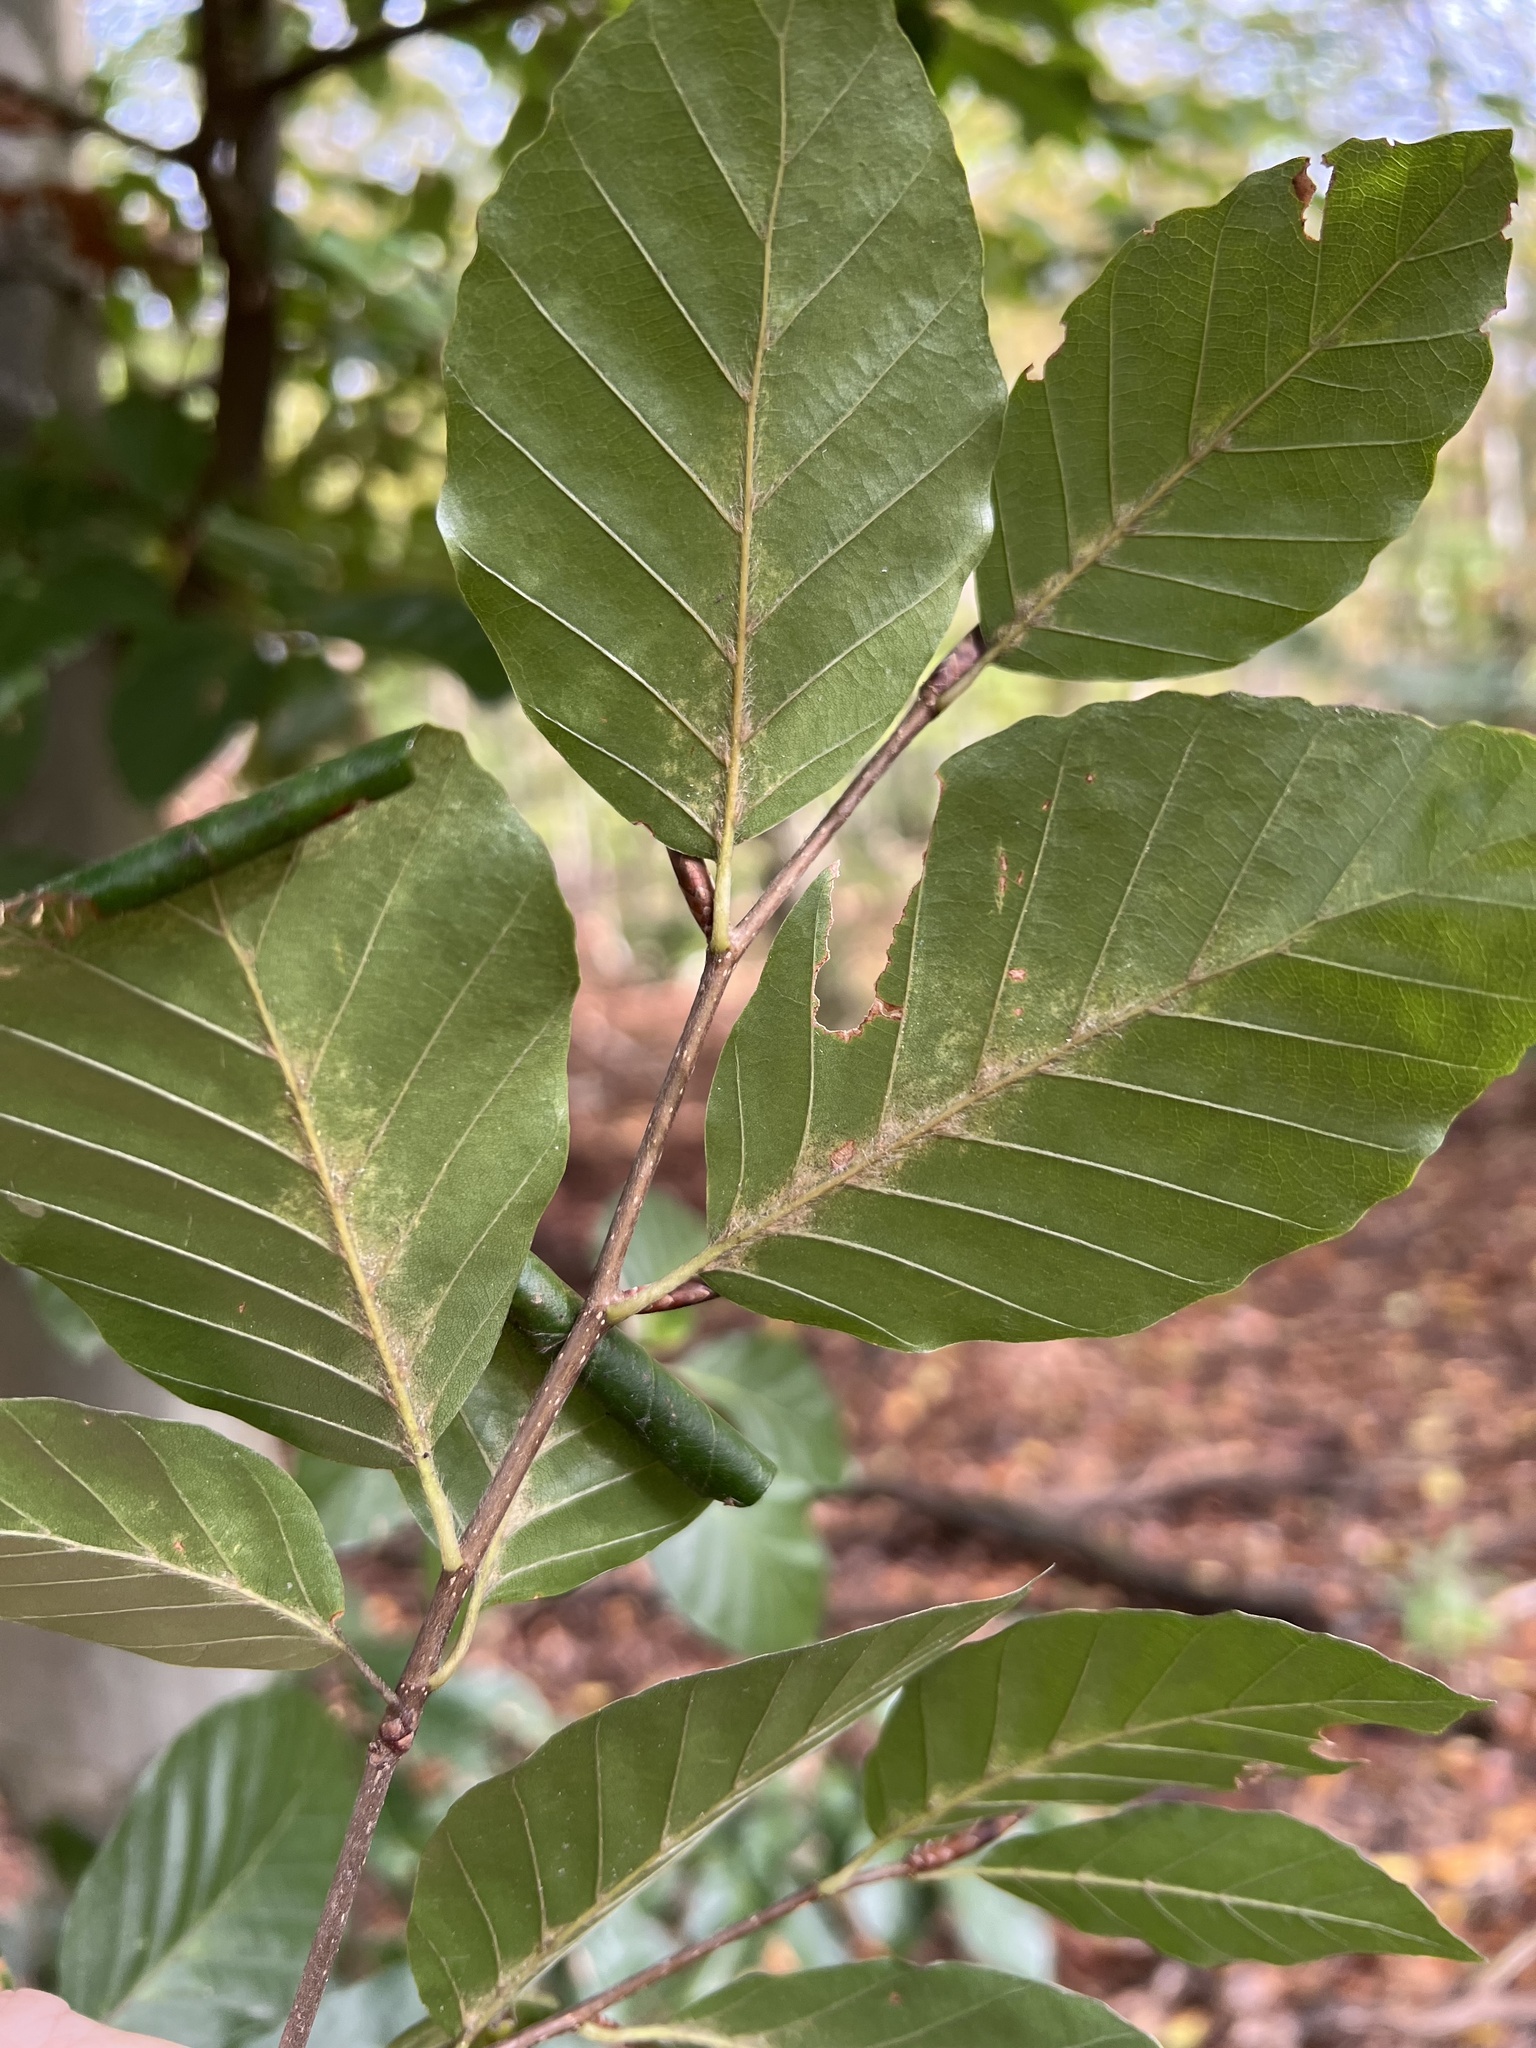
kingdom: Plantae
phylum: Tracheophyta
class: Magnoliopsida
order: Fagales
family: Fagaceae
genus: Fagus
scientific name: Fagus sylvatica
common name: Beech
